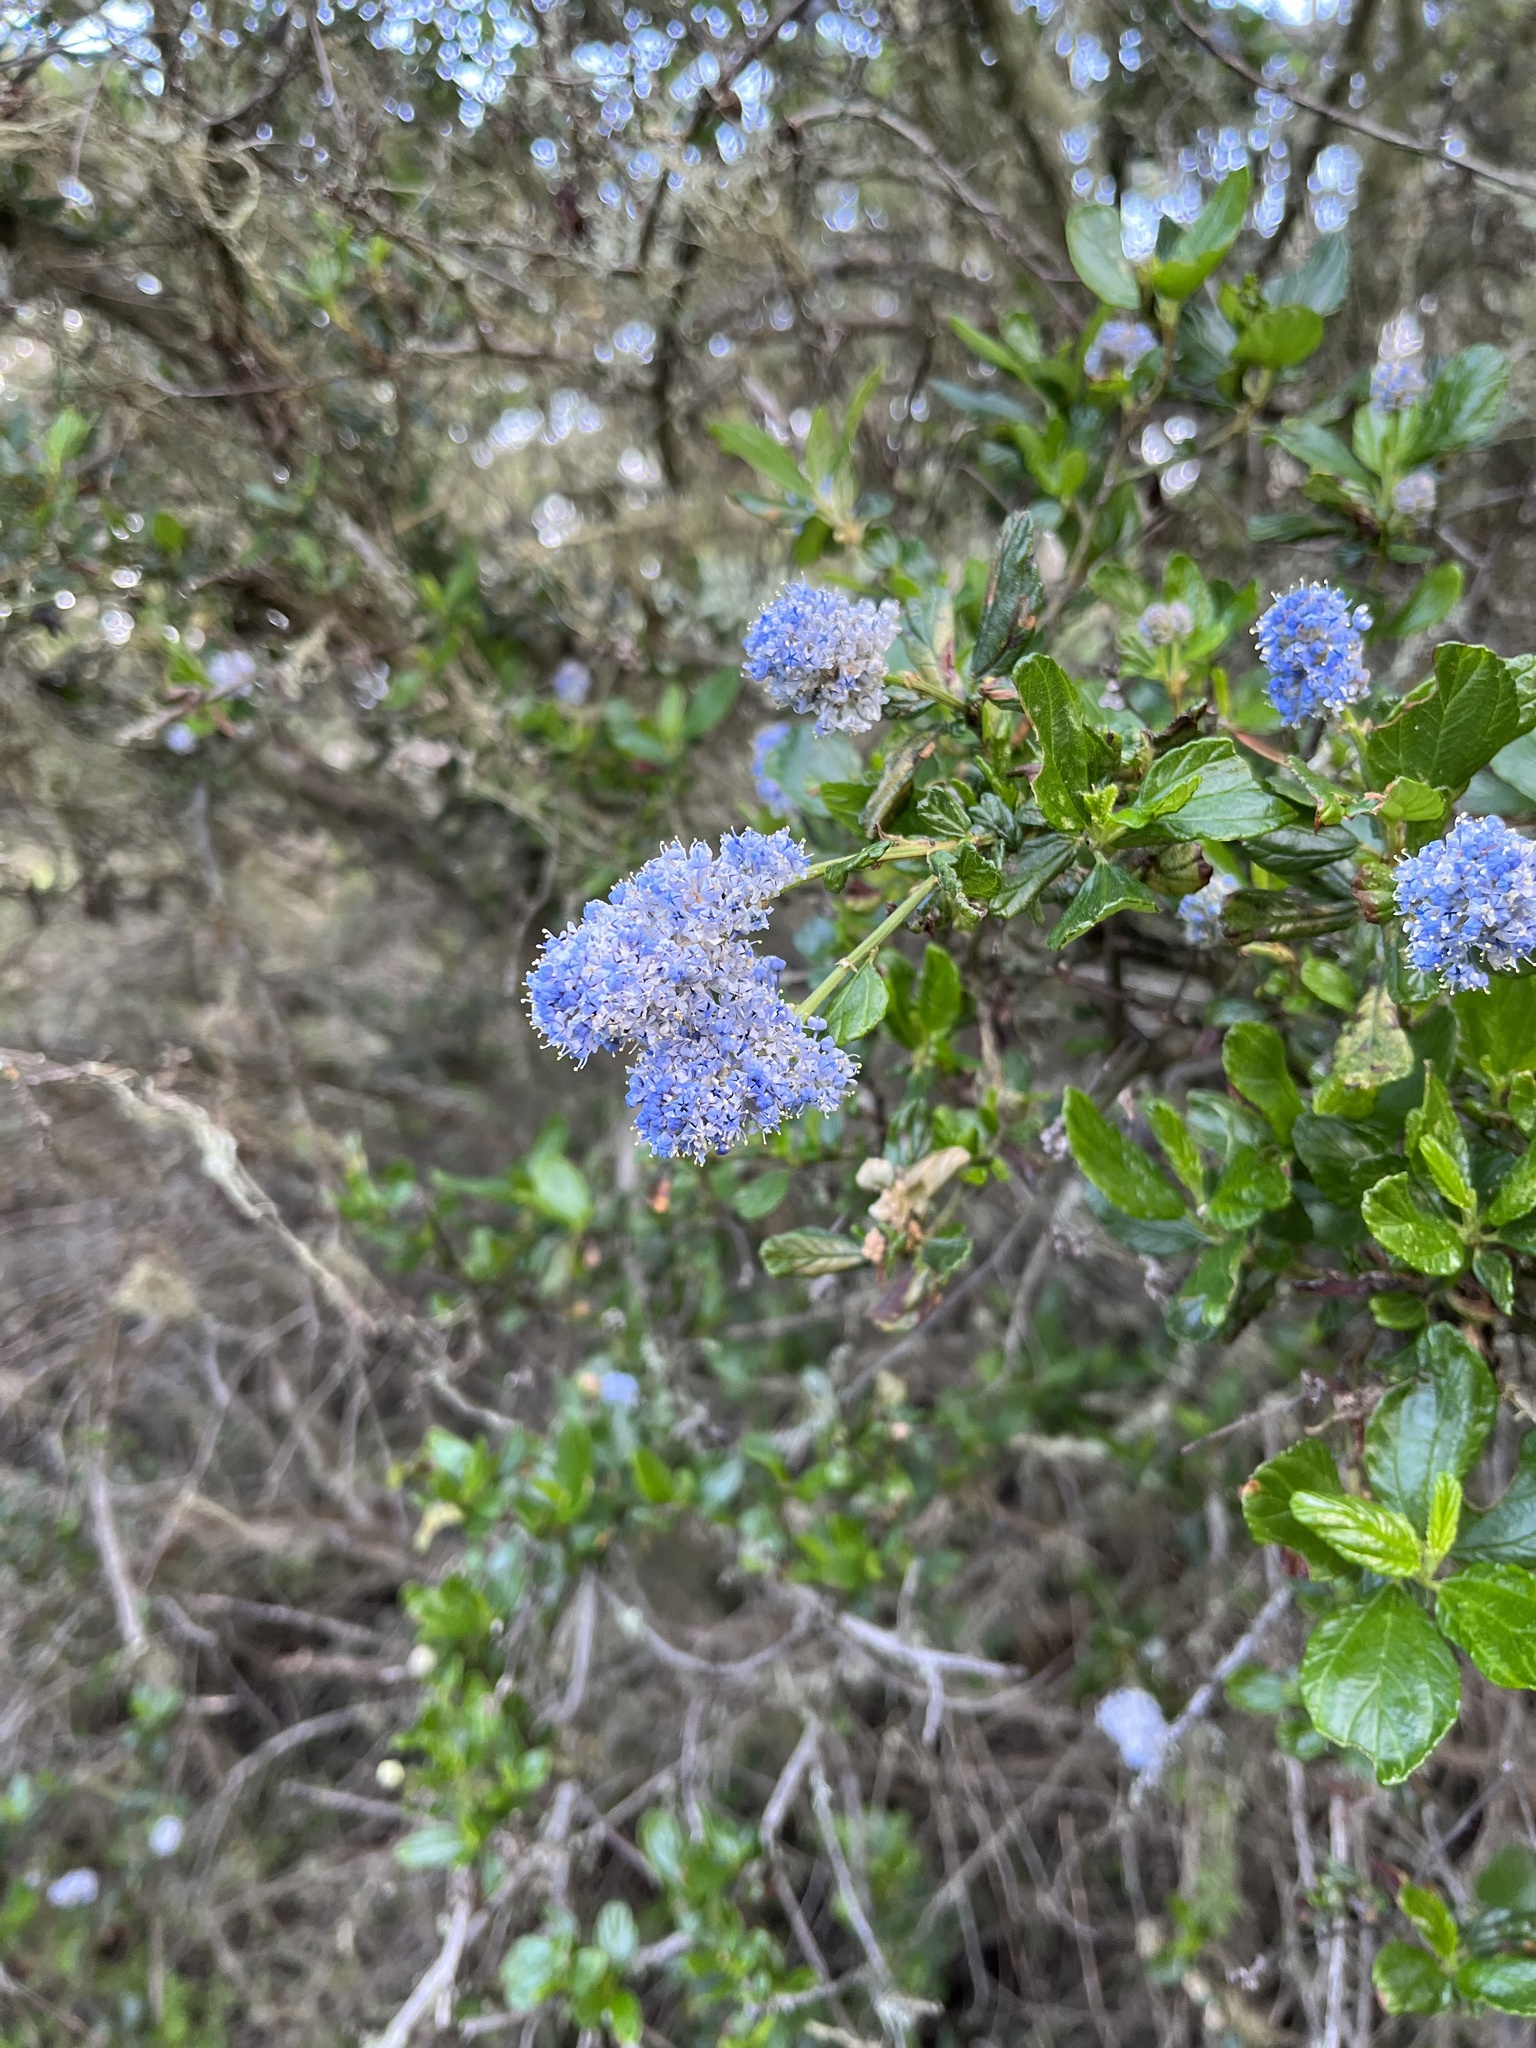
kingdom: Plantae
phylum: Tracheophyta
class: Magnoliopsida
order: Rosales
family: Rhamnaceae
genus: Ceanothus
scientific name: Ceanothus thyrsiflorus
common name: California-lilac
